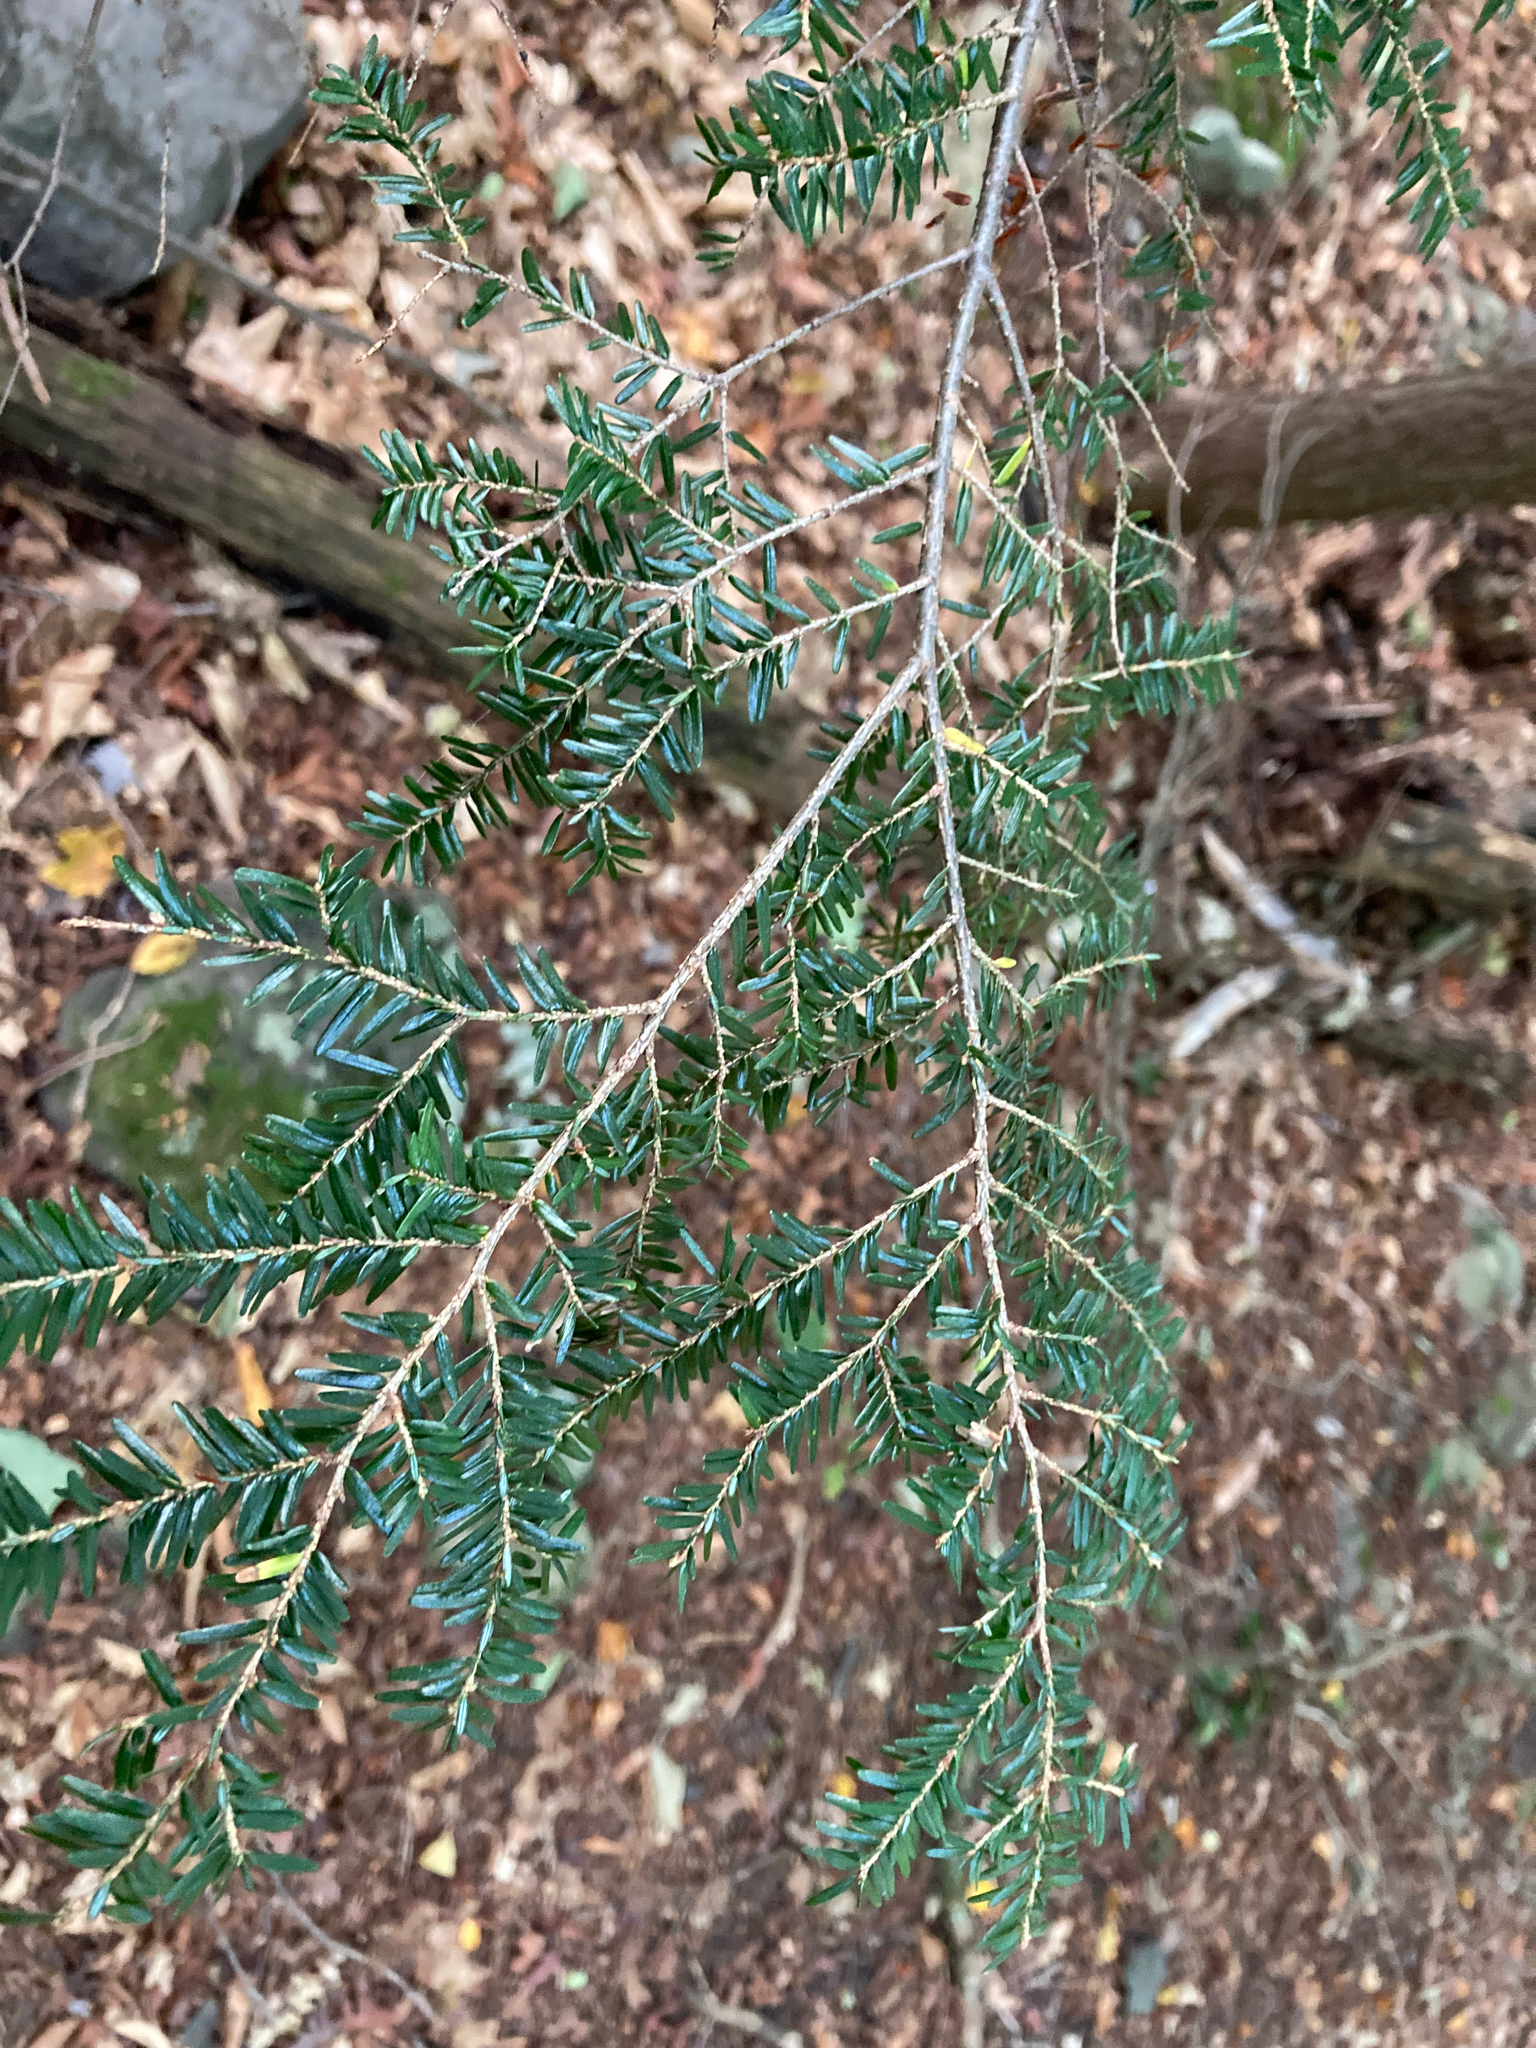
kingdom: Plantae
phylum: Tracheophyta
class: Pinopsida
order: Pinales
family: Pinaceae
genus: Tsuga
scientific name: Tsuga canadensis
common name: Eastern hemlock
